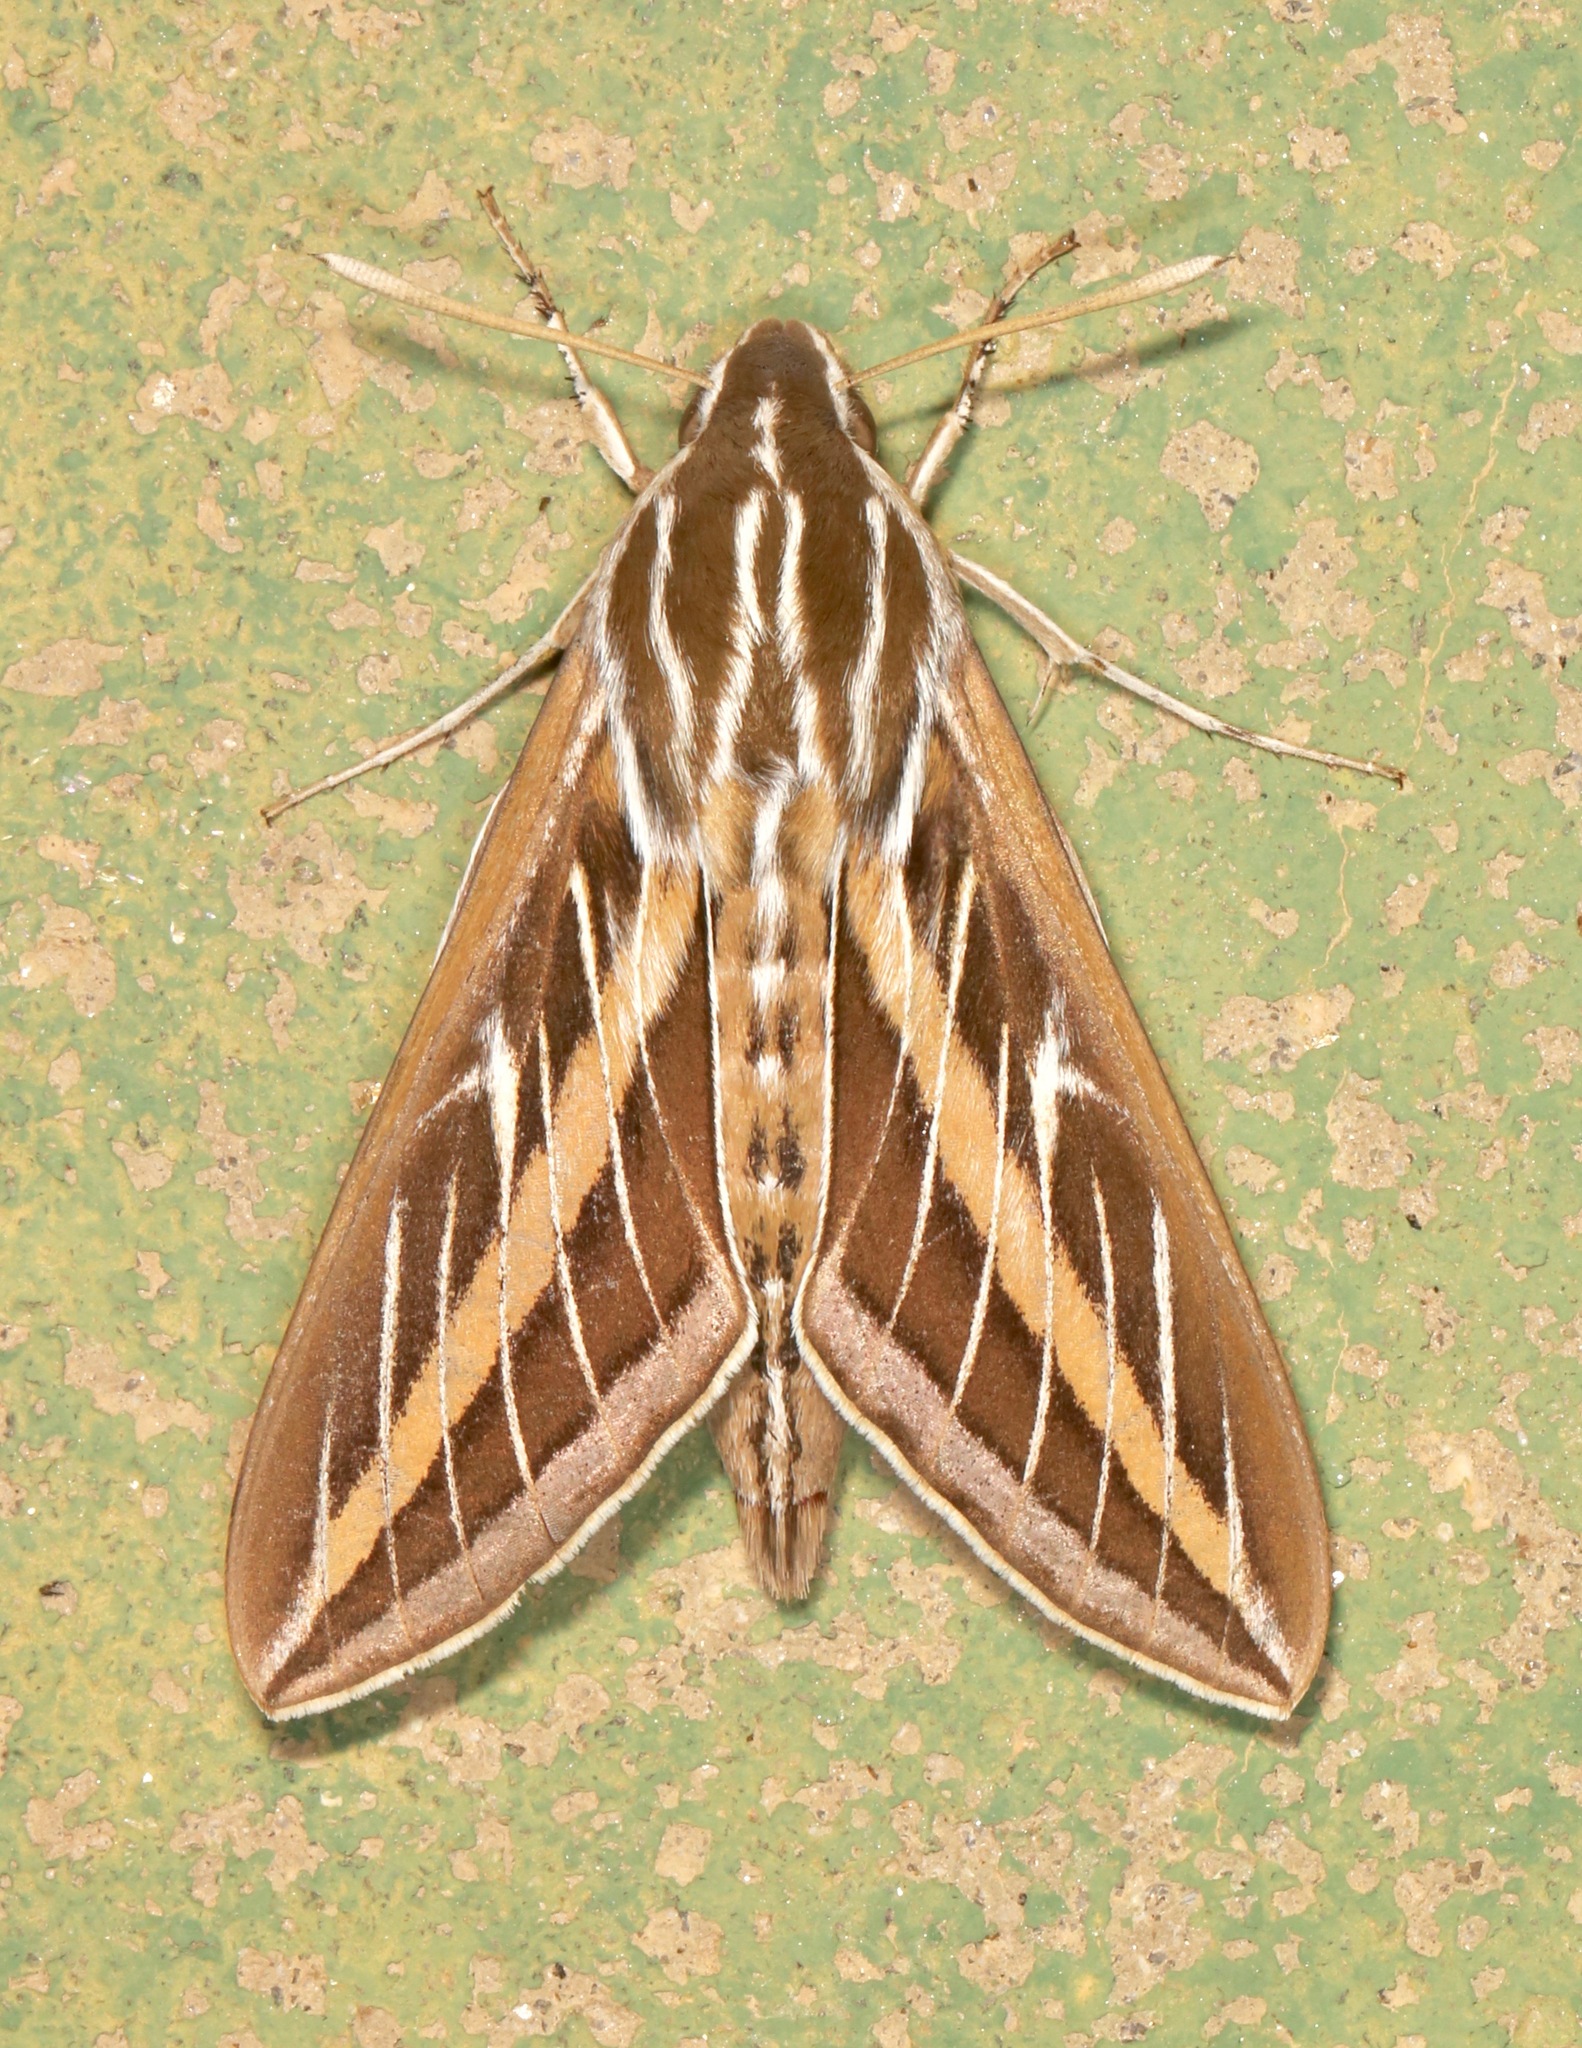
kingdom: Animalia
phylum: Arthropoda
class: Insecta
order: Lepidoptera
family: Sphingidae
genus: Hyles
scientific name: Hyles lineata
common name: White-lined sphinx
